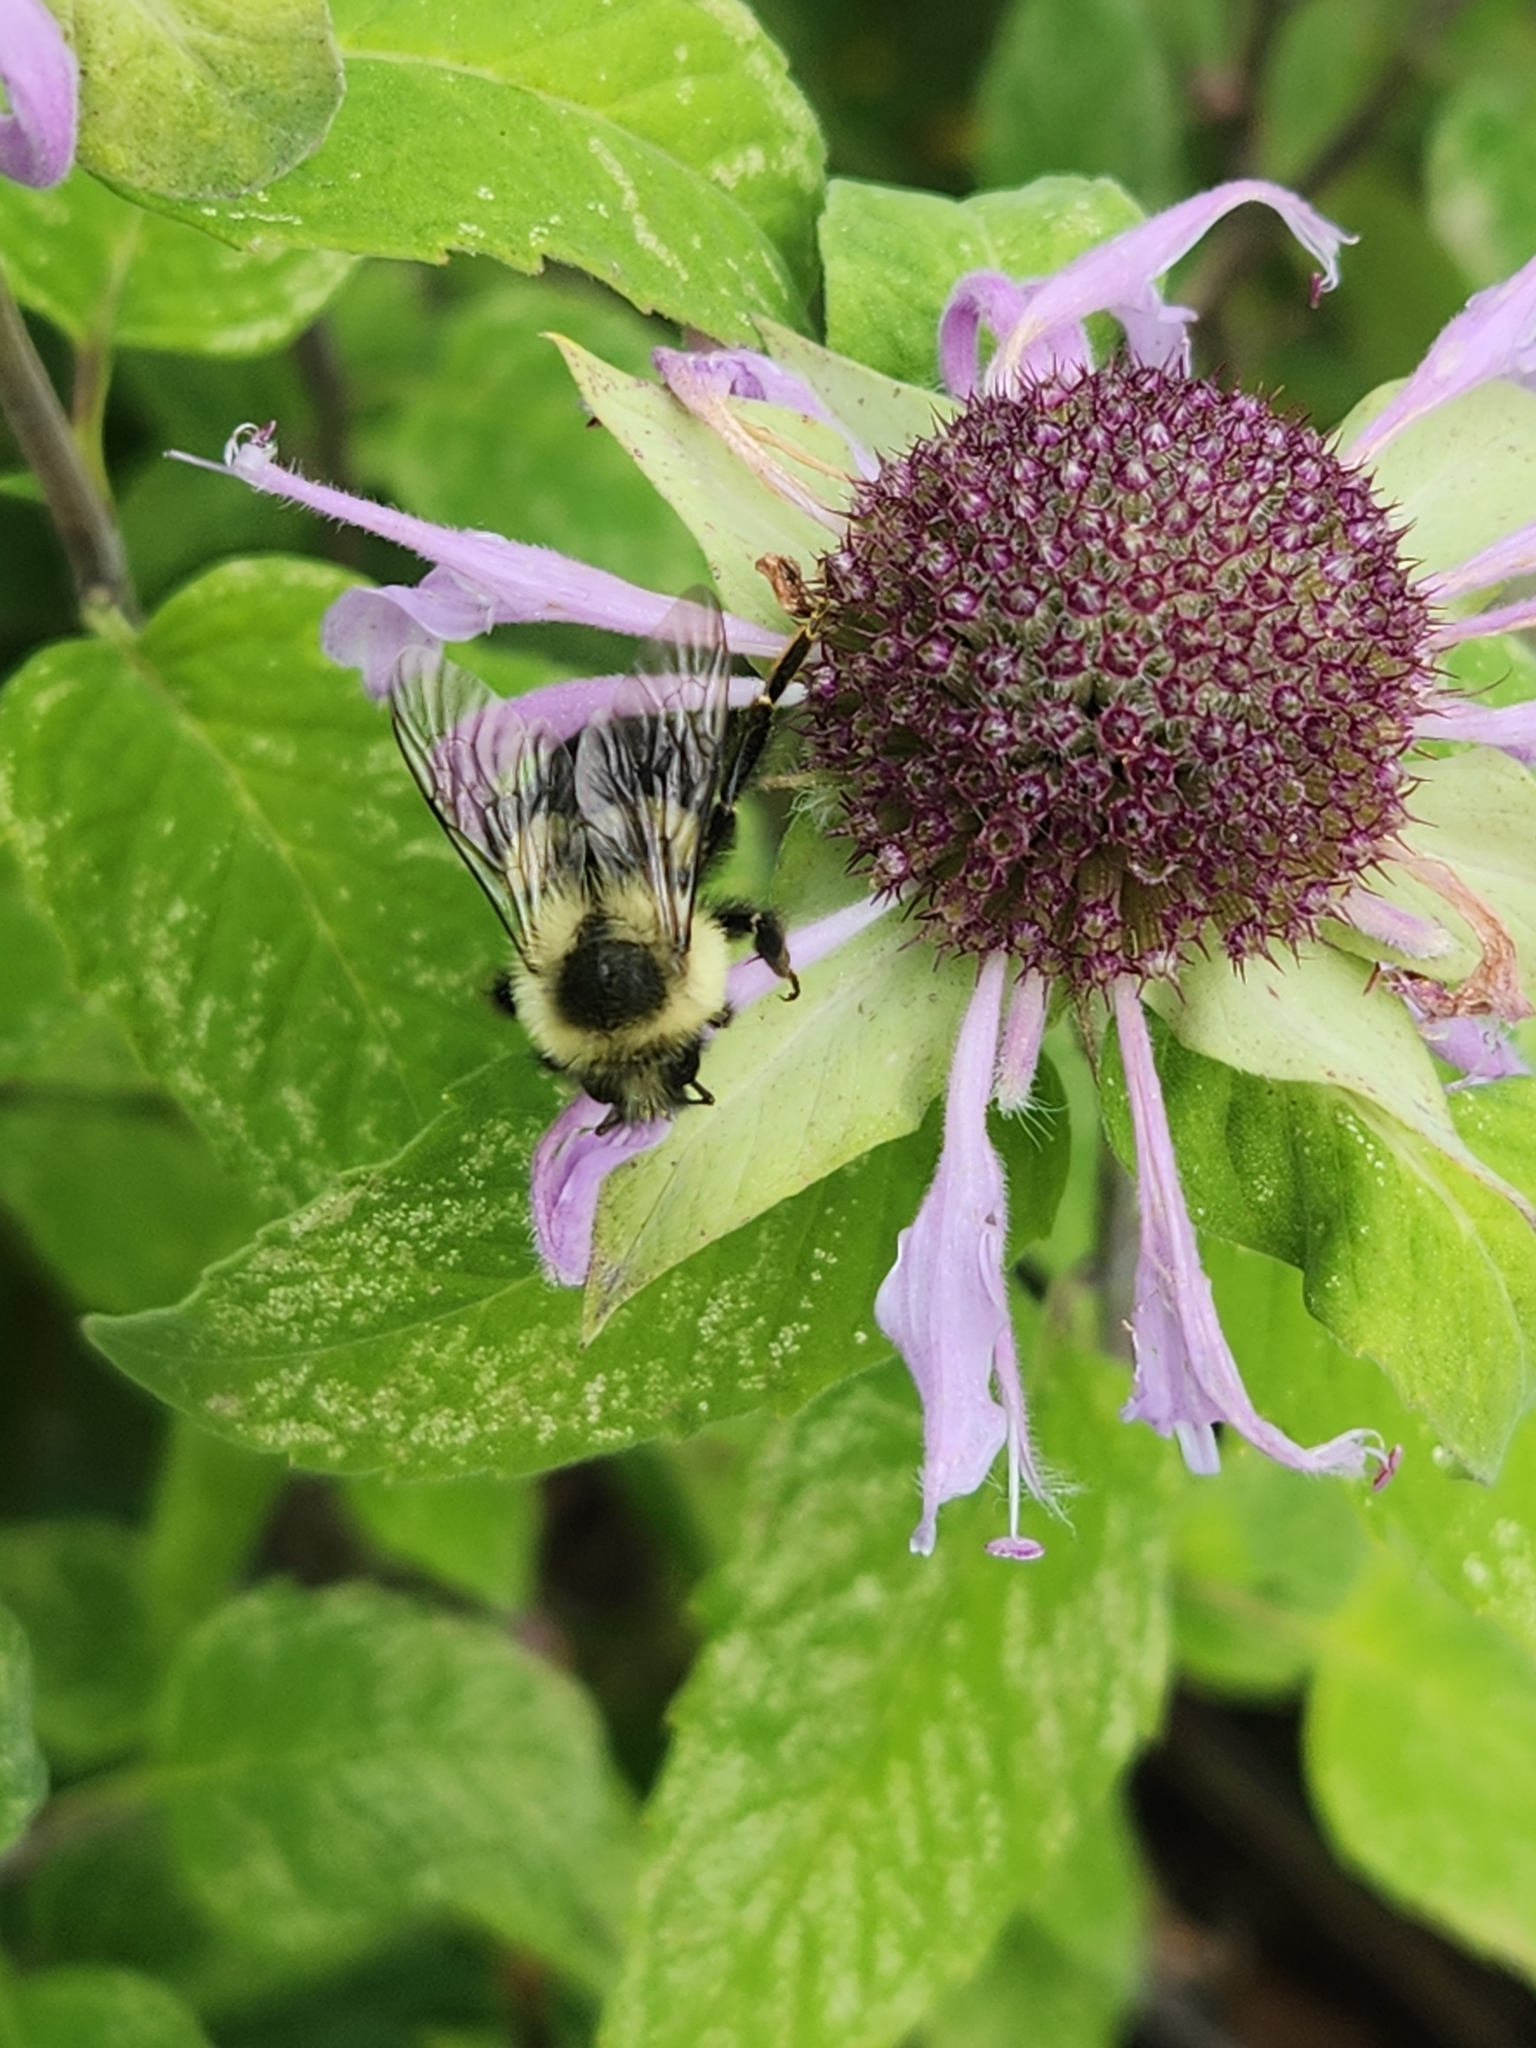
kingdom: Animalia
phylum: Arthropoda
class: Insecta
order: Hymenoptera
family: Apidae
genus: Bombus
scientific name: Bombus impatiens
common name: Common eastern bumble bee
